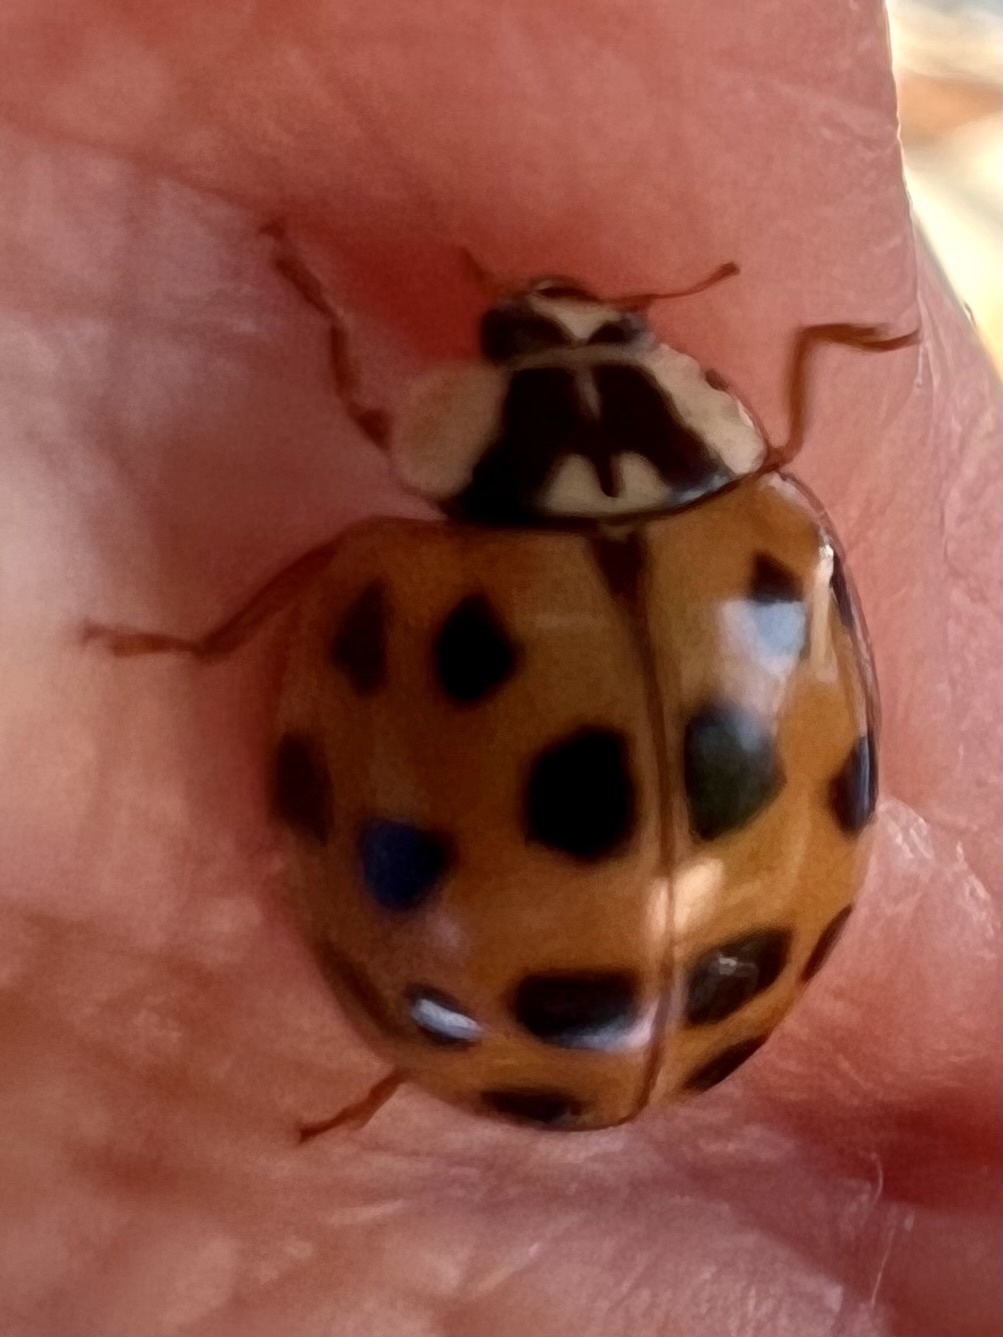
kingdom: Animalia
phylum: Arthropoda
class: Insecta
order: Coleoptera
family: Coccinellidae
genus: Harmonia
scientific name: Harmonia axyridis
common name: Harlequin ladybird
